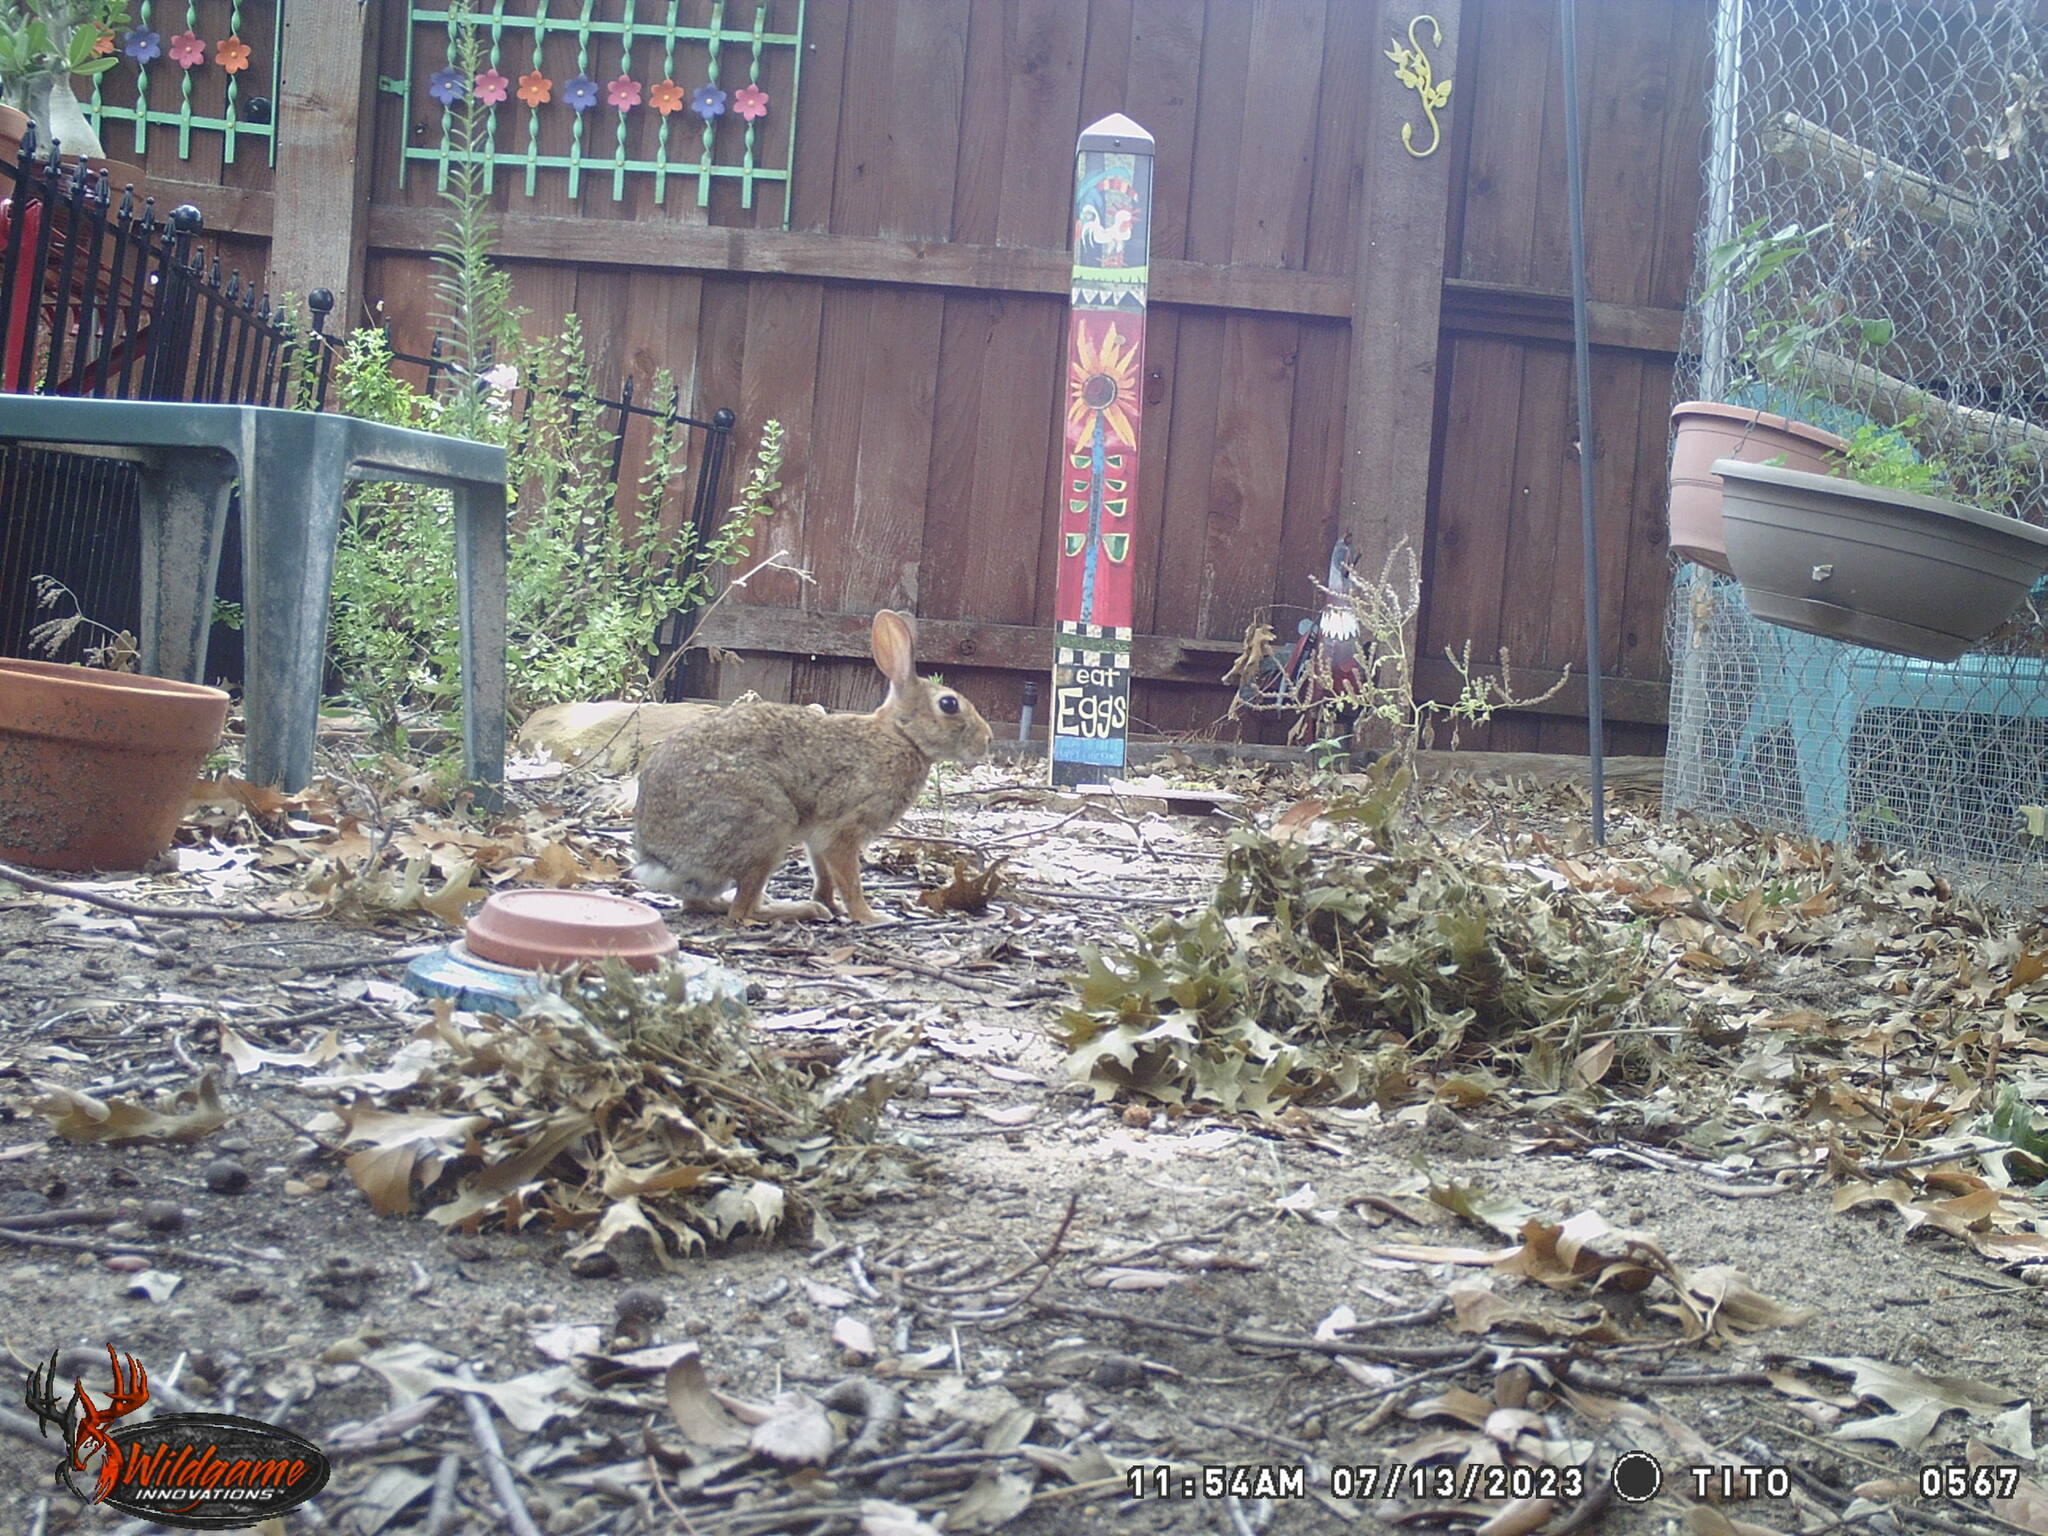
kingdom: Animalia
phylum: Chordata
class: Mammalia
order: Lagomorpha
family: Leporidae
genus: Sylvilagus
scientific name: Sylvilagus floridanus
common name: Eastern cottontail
